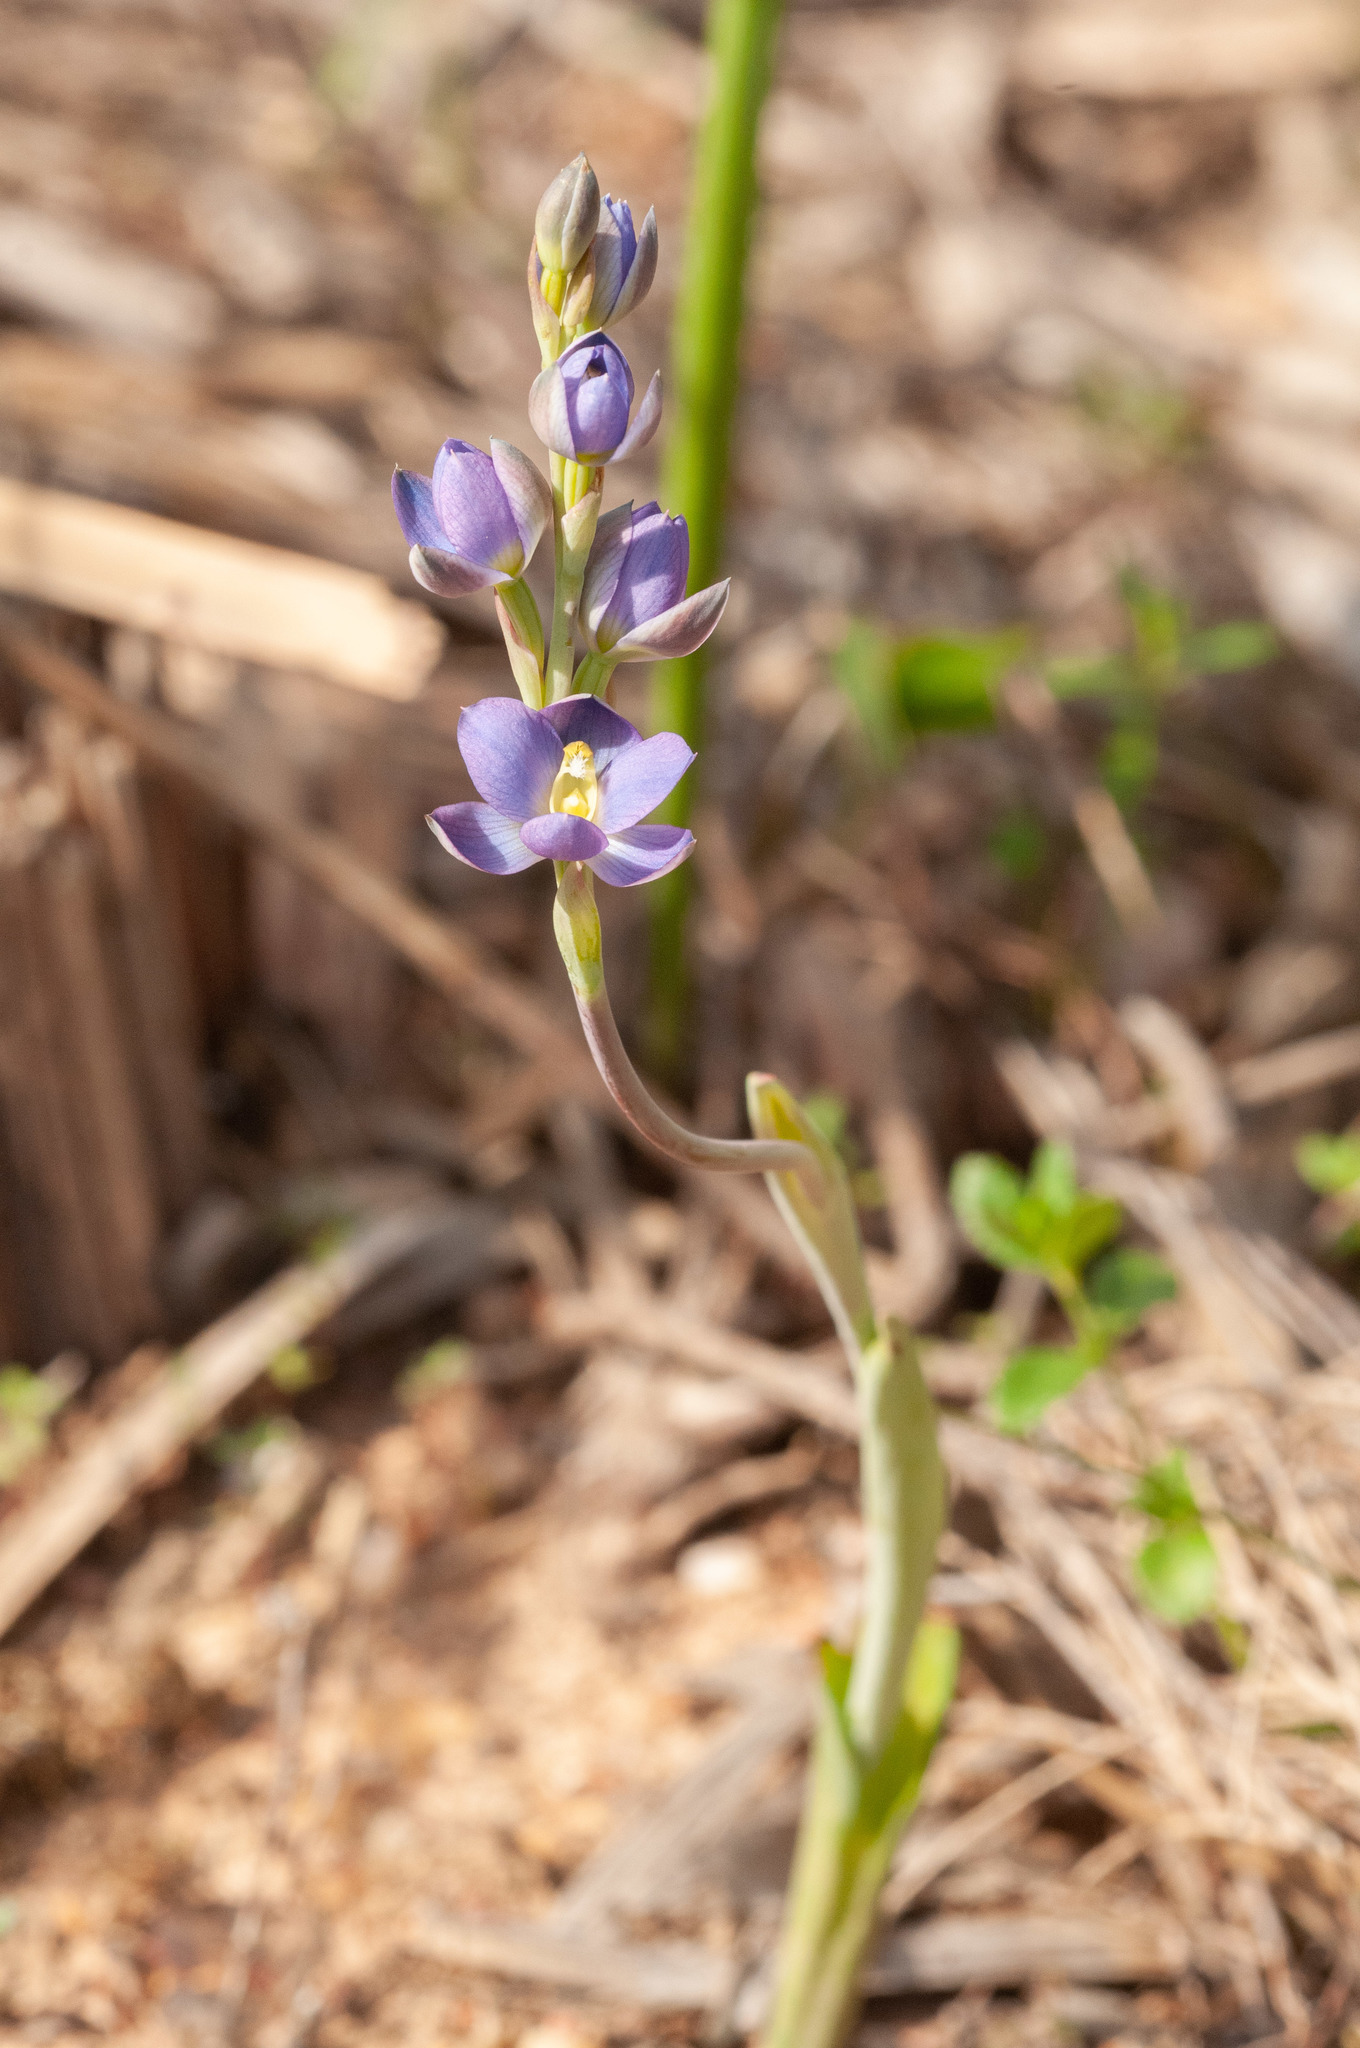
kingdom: Plantae
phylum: Tracheophyta
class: Liliopsida
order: Asparagales
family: Orchidaceae
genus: Thelymitra
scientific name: Thelymitra grandiflora
